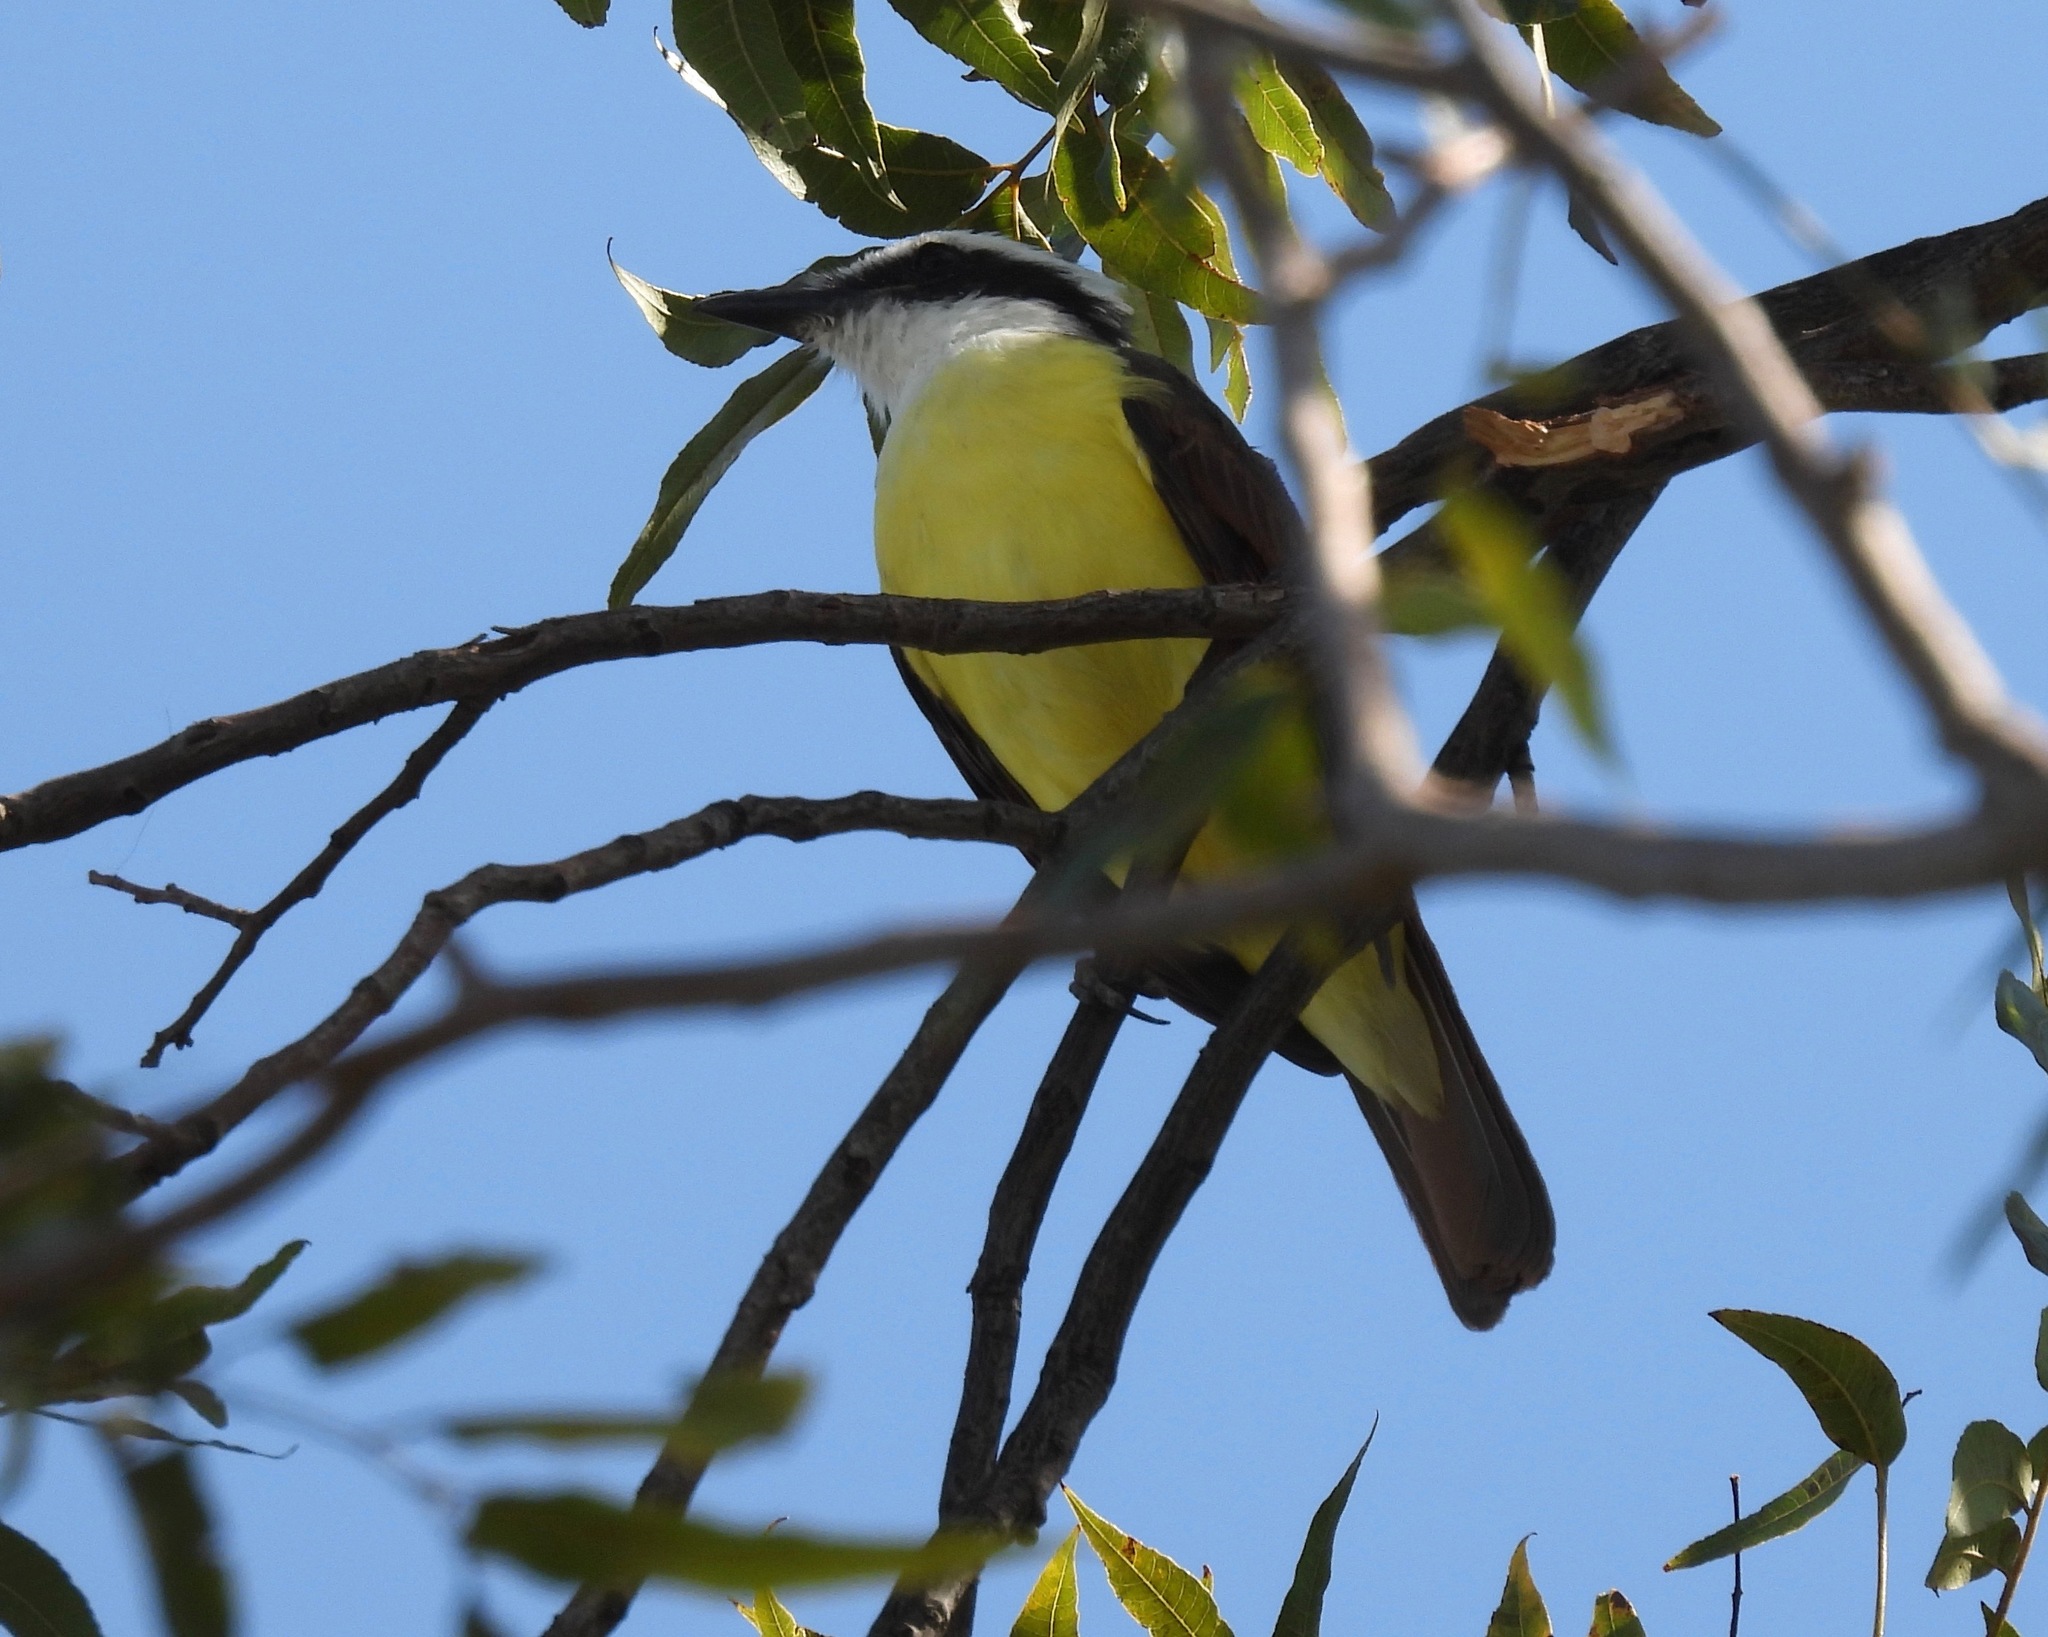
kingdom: Animalia
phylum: Chordata
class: Aves
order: Passeriformes
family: Tyrannidae
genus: Pitangus
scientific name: Pitangus sulphuratus
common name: Great kiskadee
